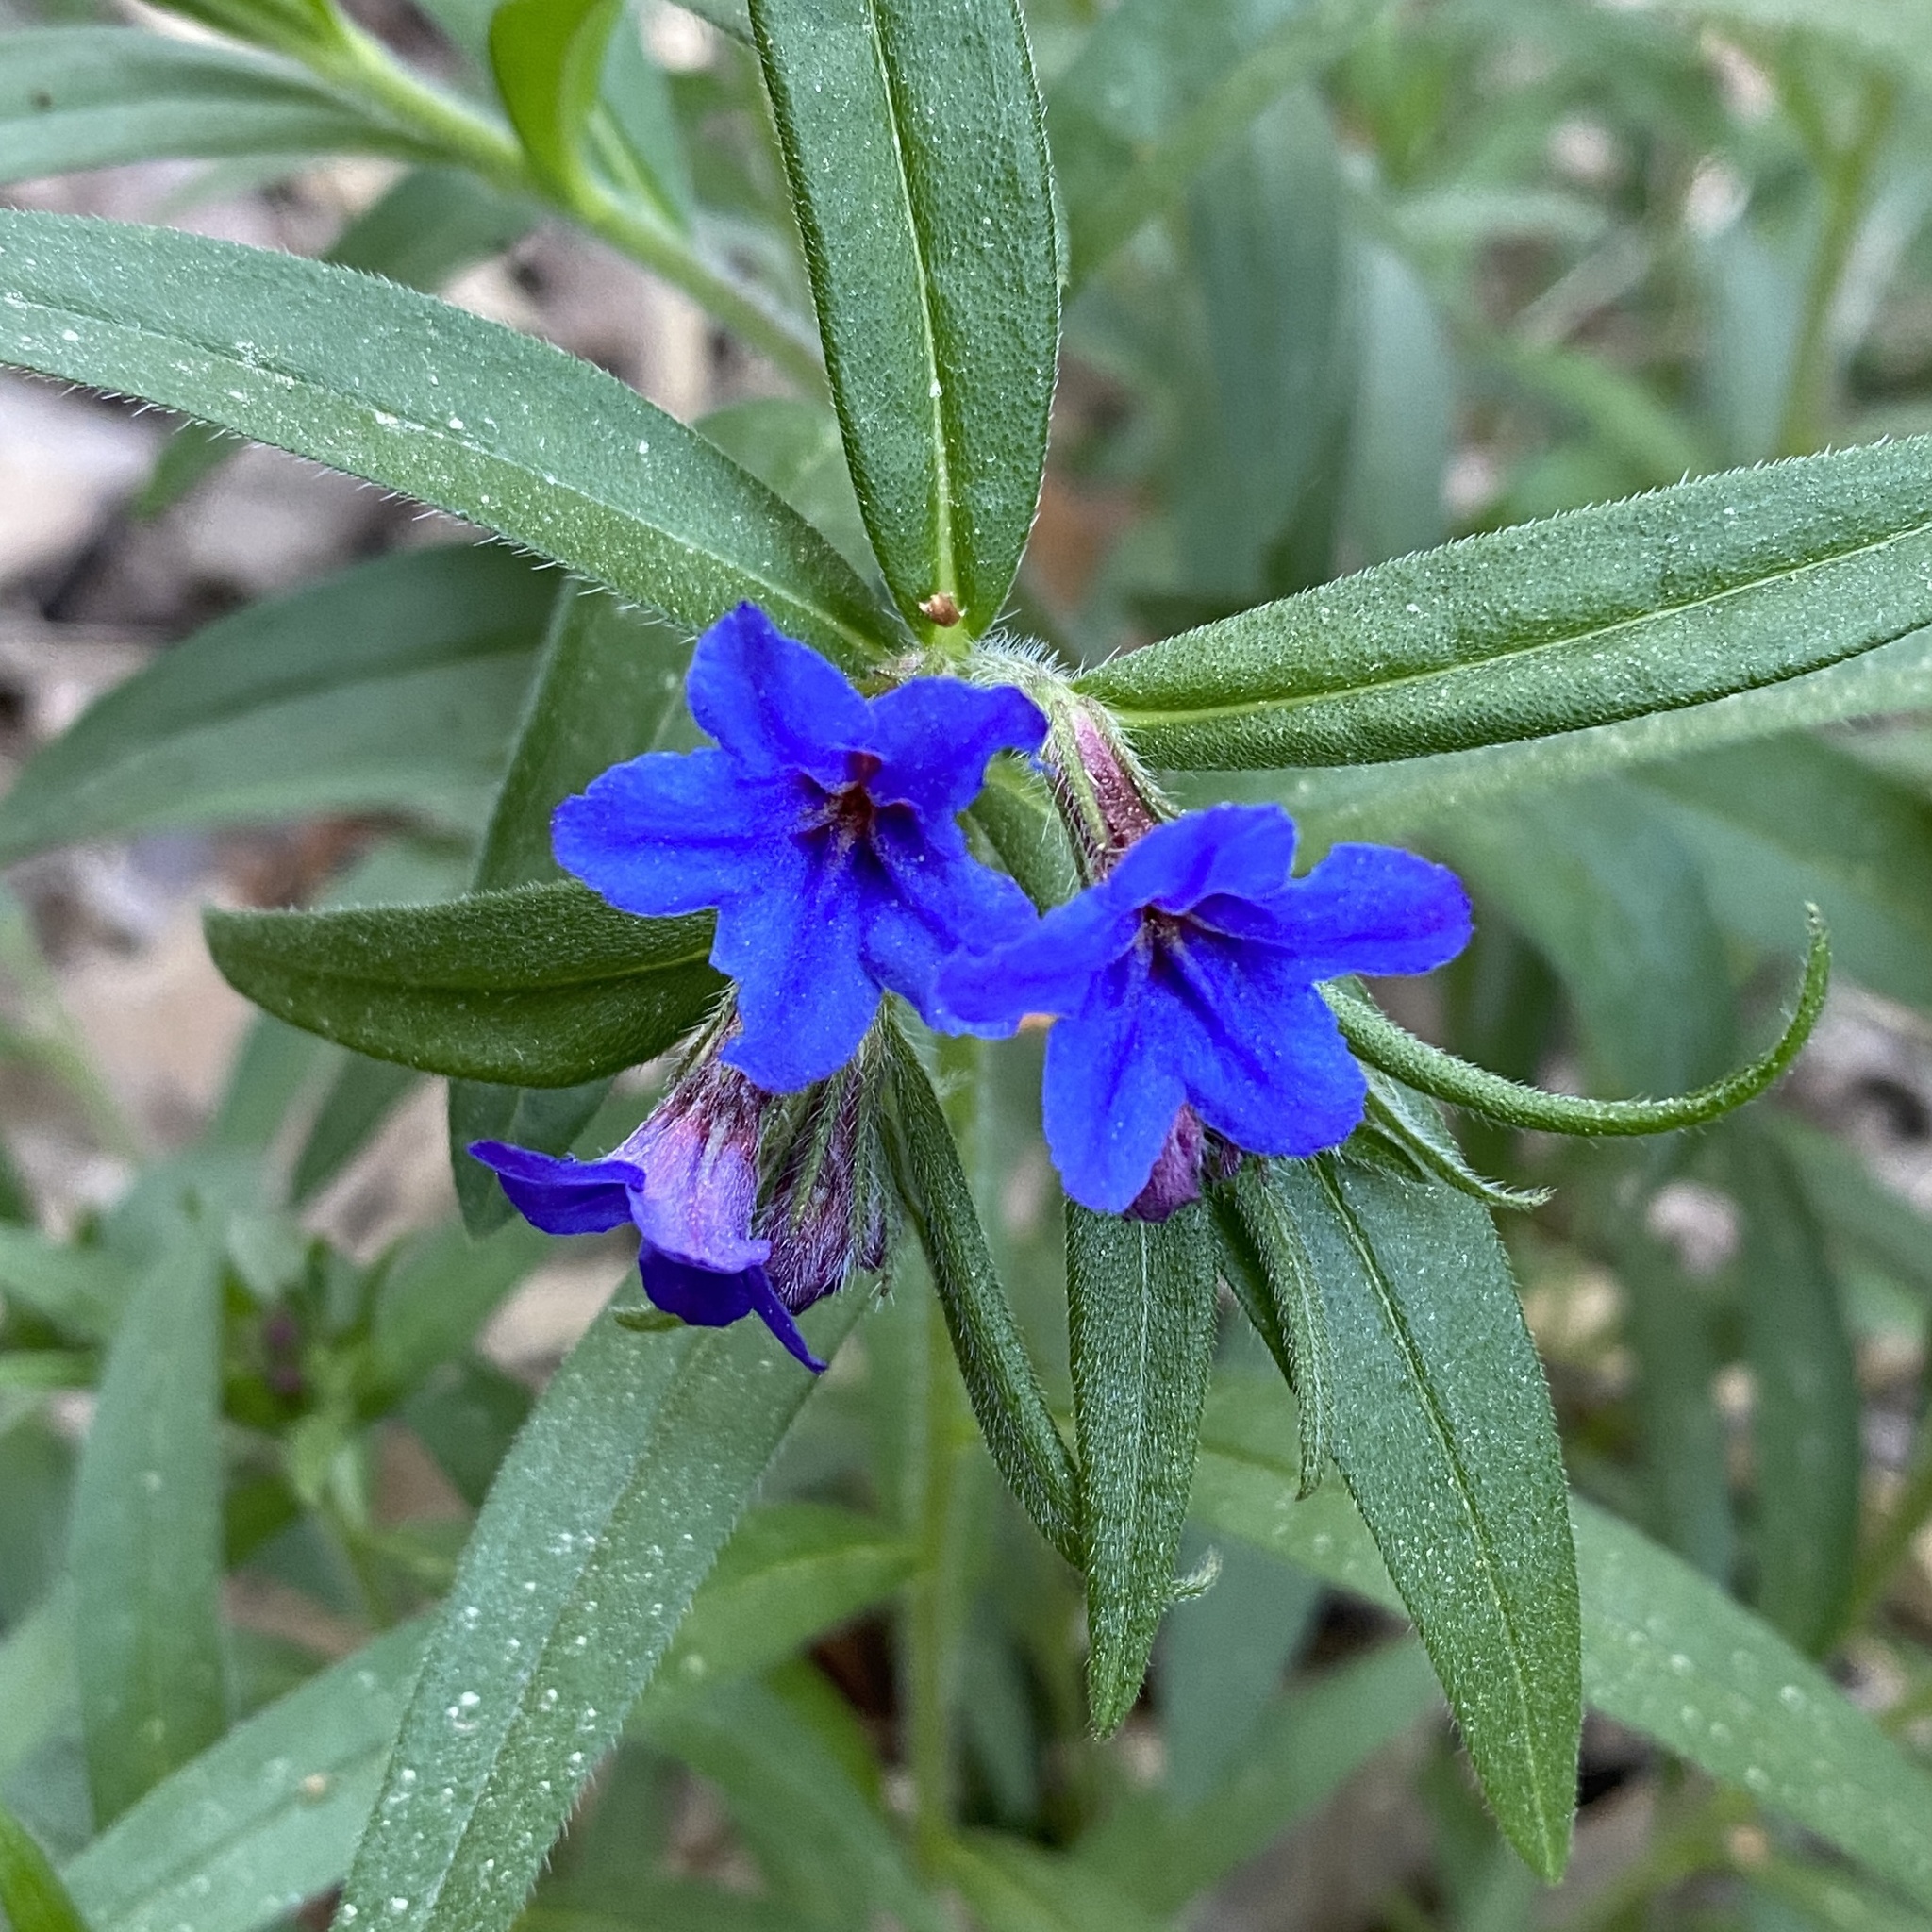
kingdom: Plantae
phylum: Tracheophyta
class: Magnoliopsida
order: Boraginales
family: Boraginaceae
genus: Aegonychon
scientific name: Aegonychon purpurocaeruleum
